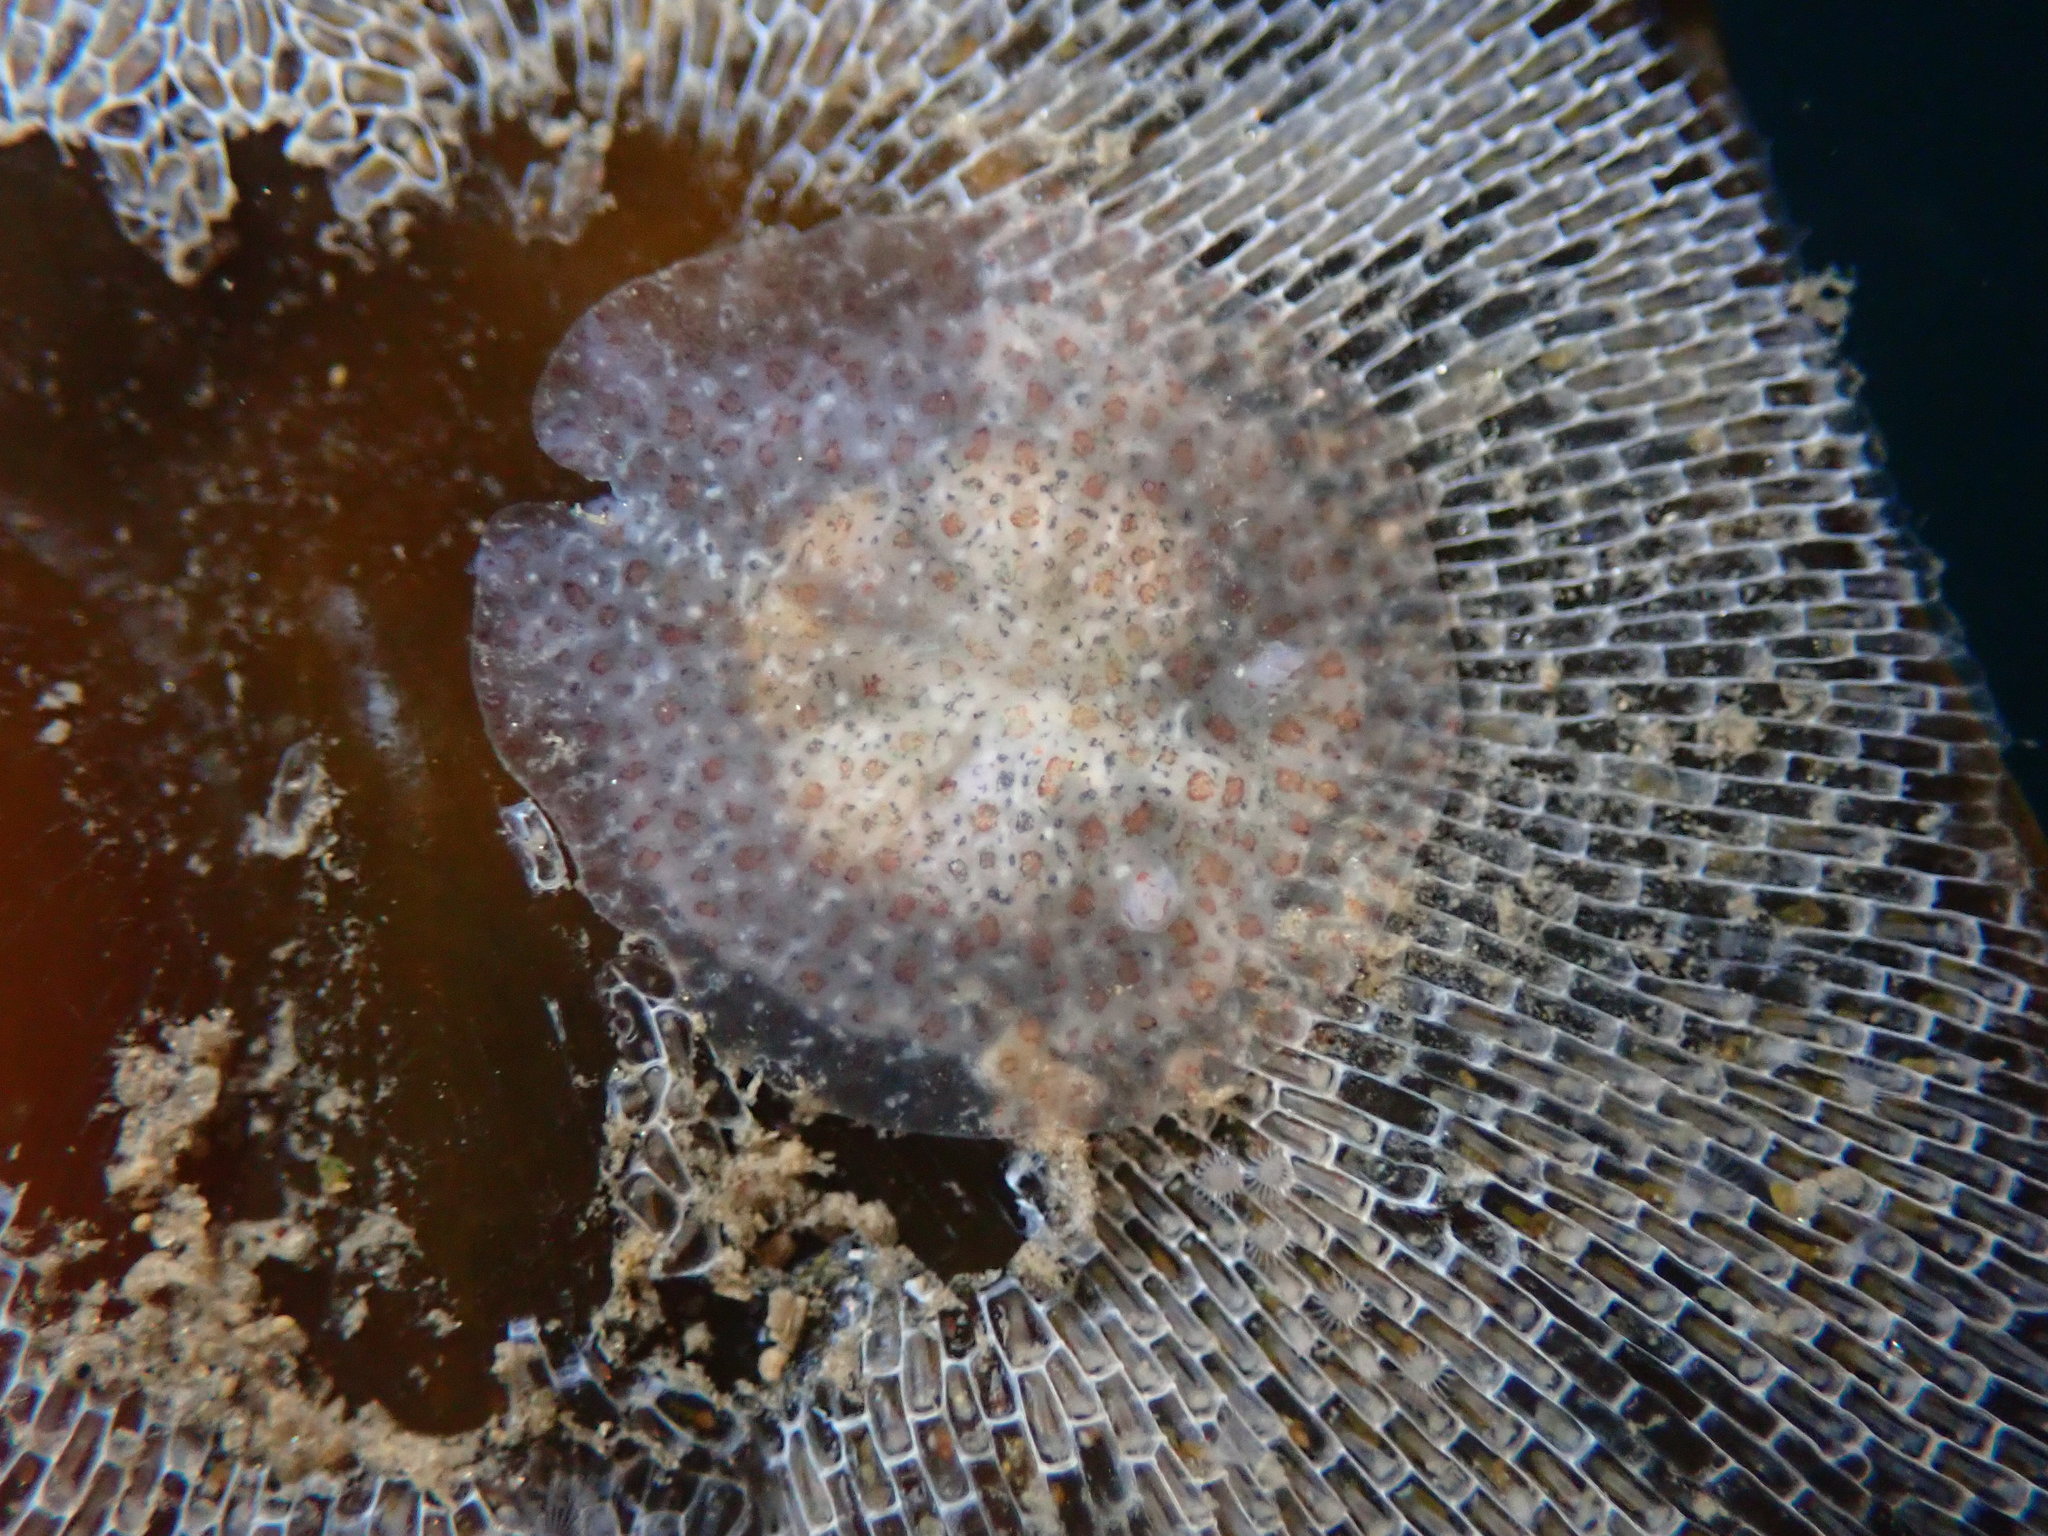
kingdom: Animalia
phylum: Mollusca
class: Gastropoda
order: Nudibranchia
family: Corambidae
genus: Corambe
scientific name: Corambe pacifica
